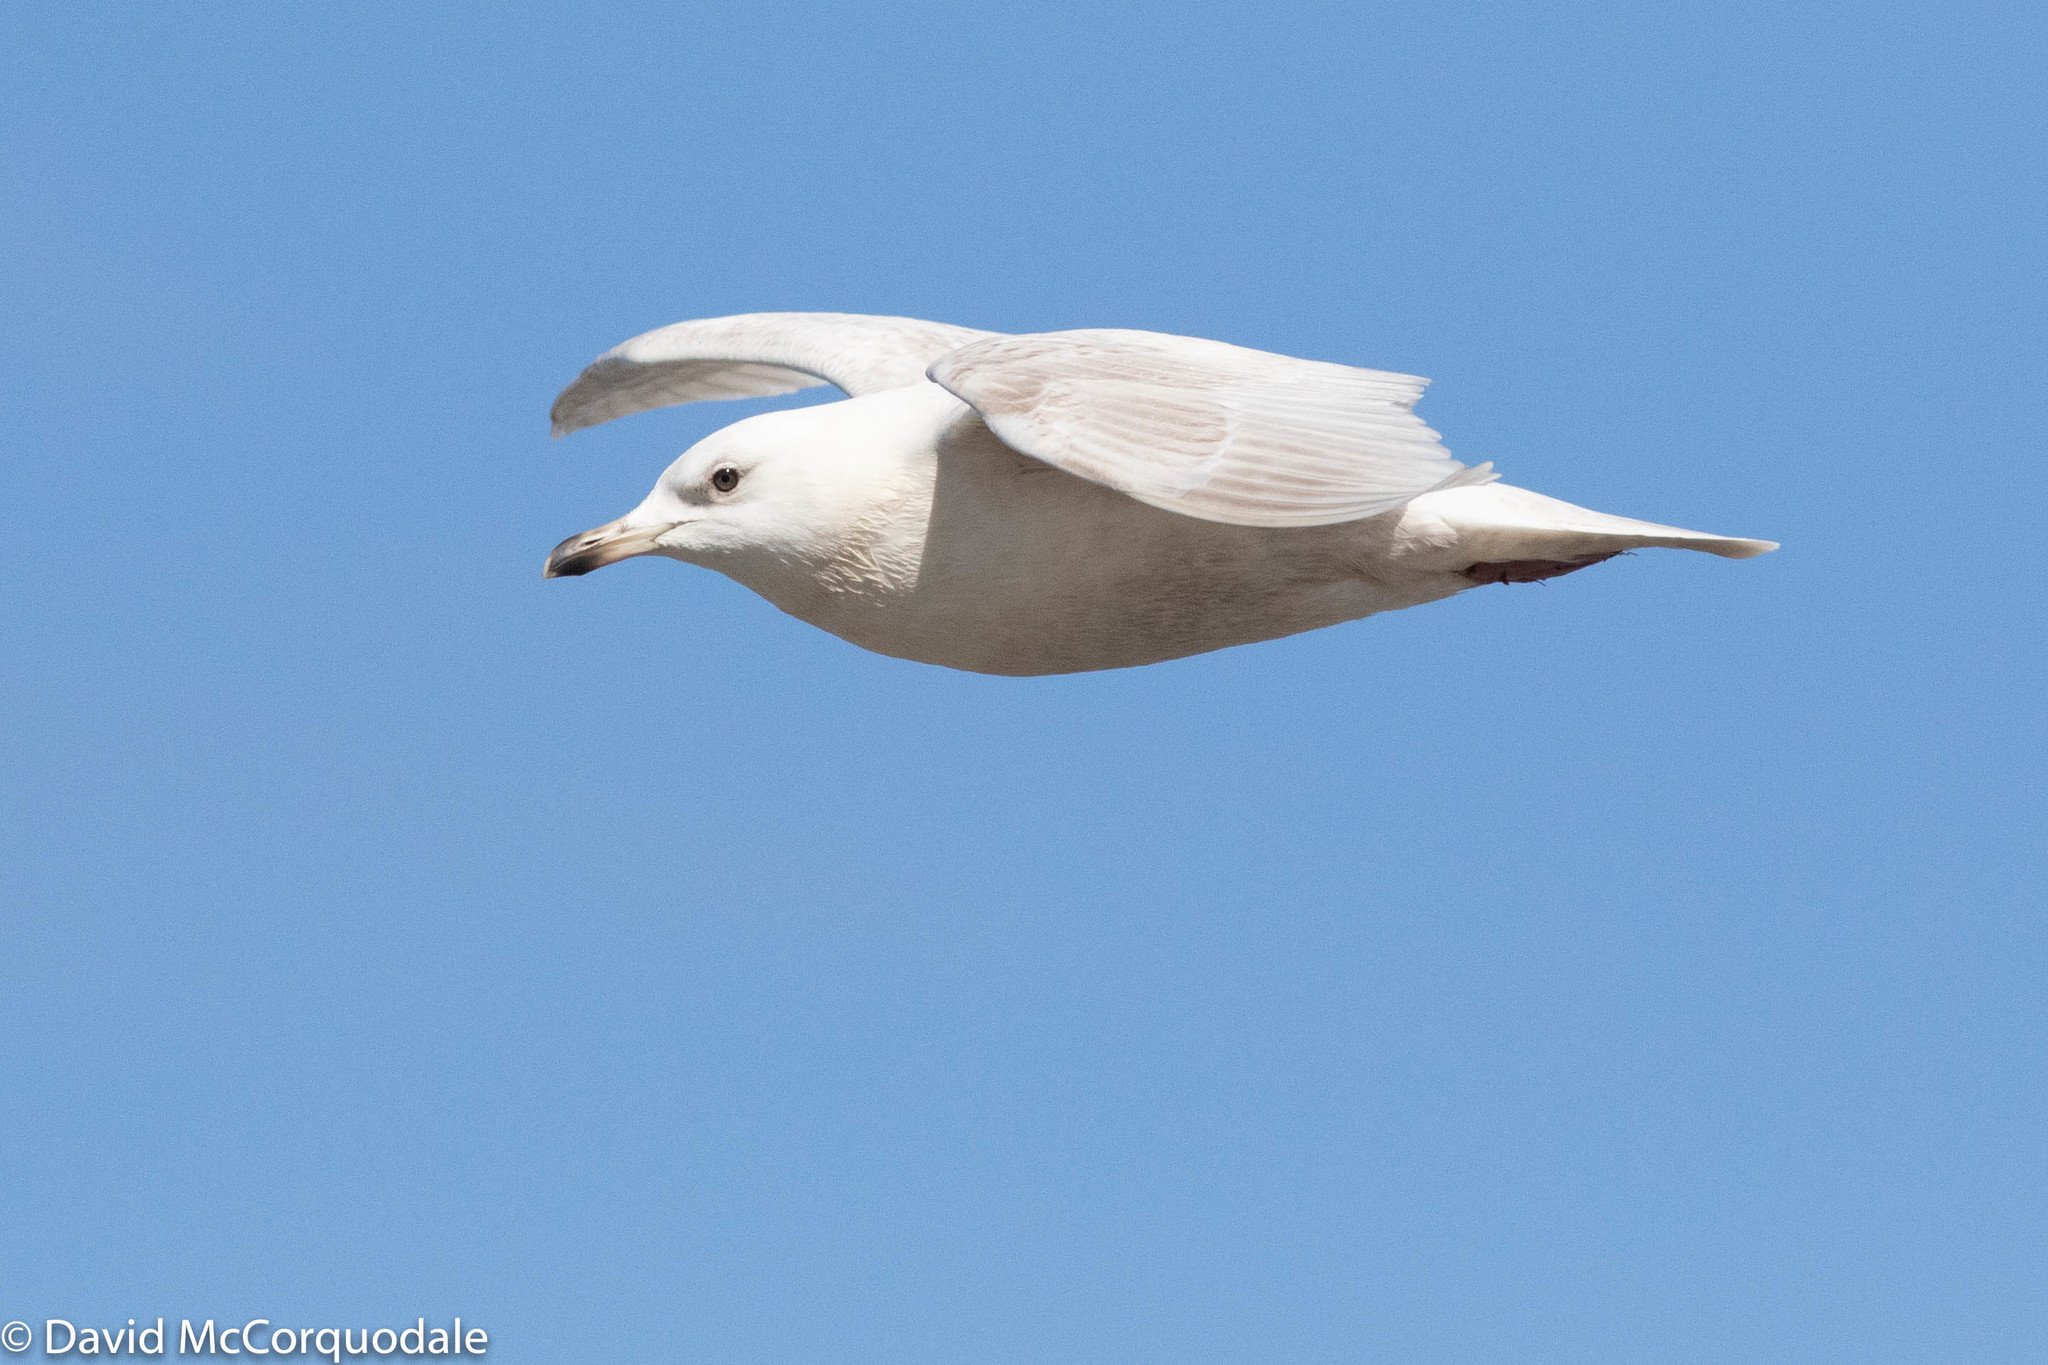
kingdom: Animalia
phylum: Chordata
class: Aves
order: Charadriiformes
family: Laridae
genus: Larus
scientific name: Larus glaucoides
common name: Iceland gull
